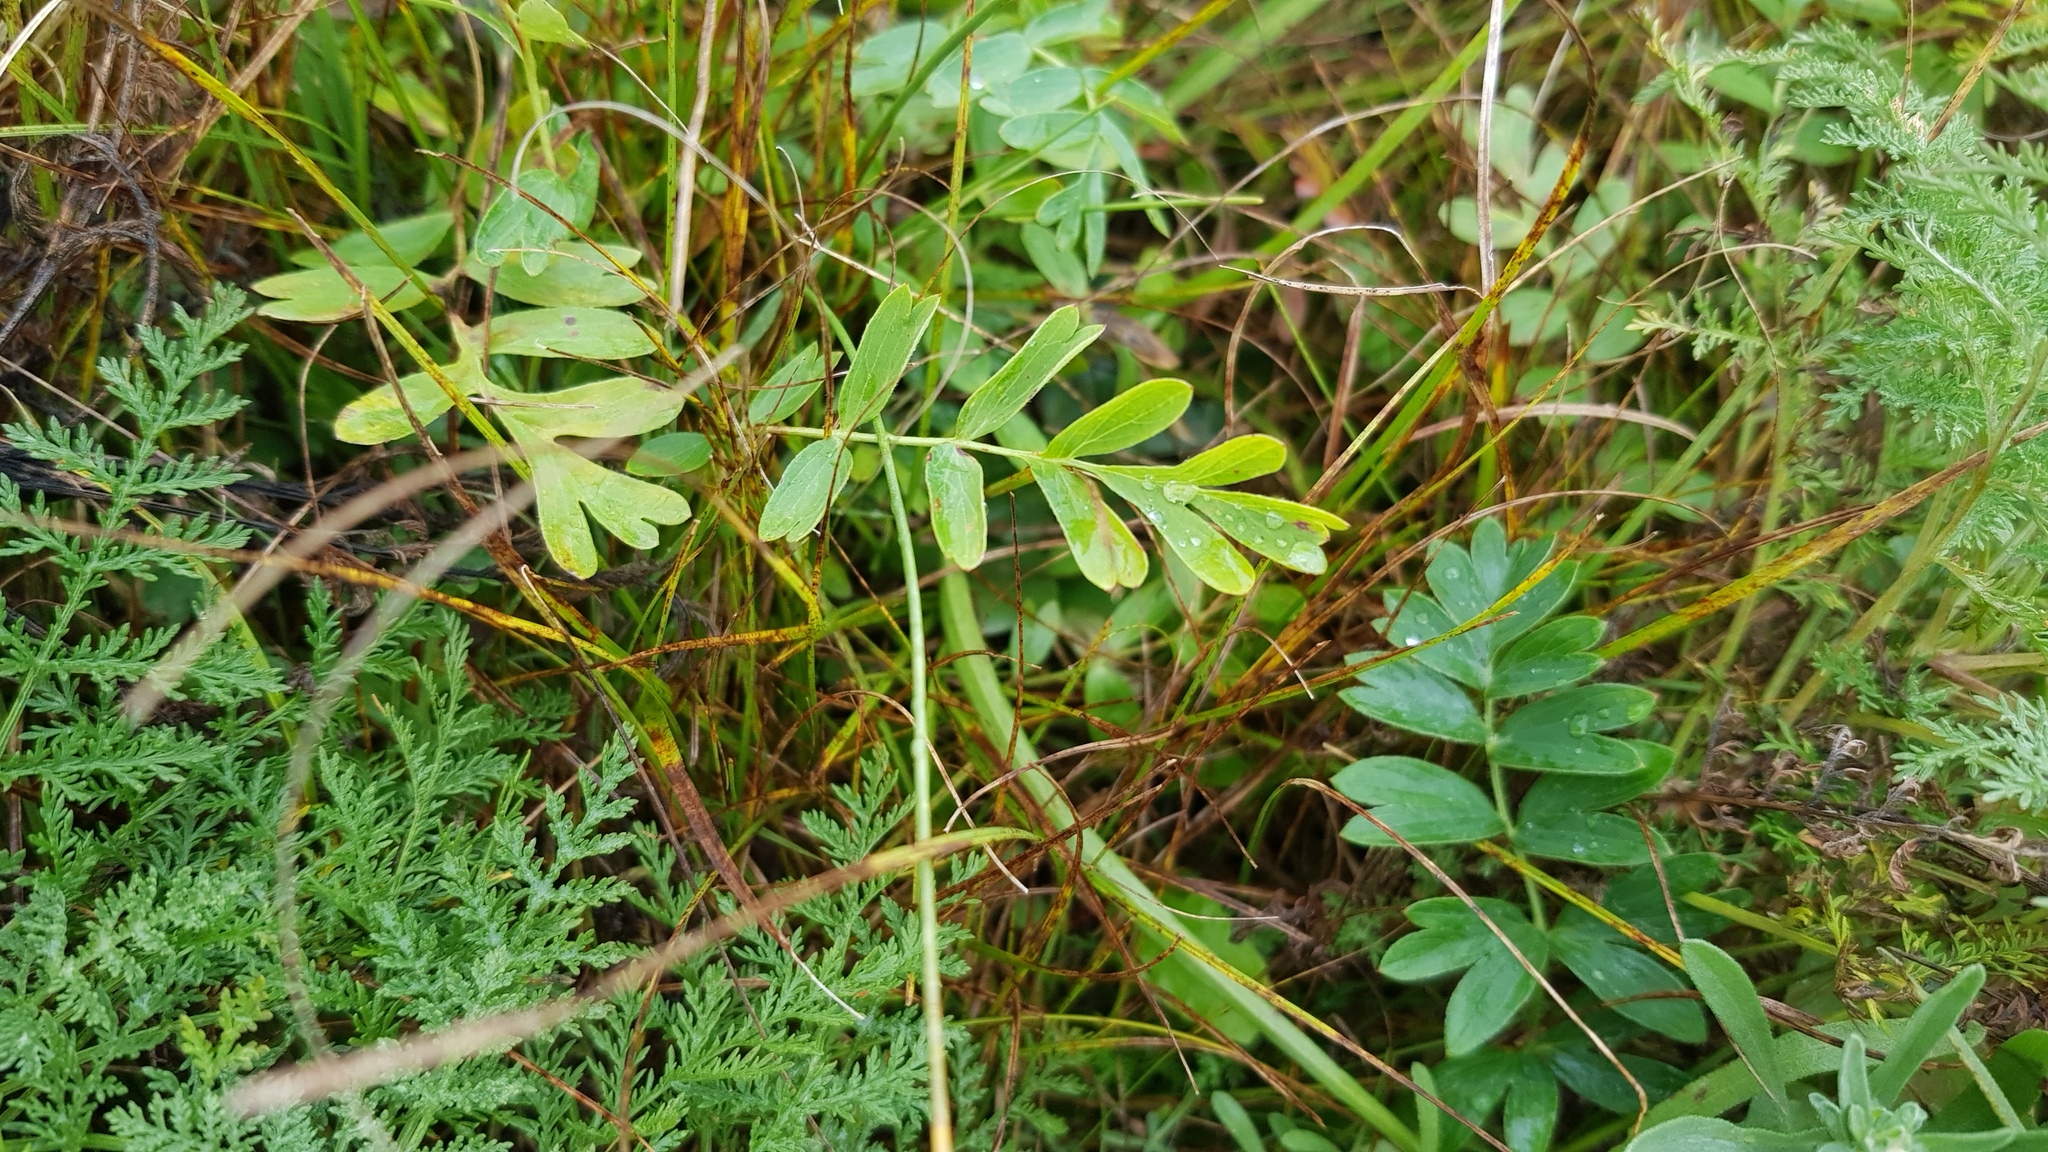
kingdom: Plantae
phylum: Tracheophyta
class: Magnoliopsida
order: Rosales
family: Rosaceae
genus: Sibbaldianthe
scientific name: Sibbaldianthe bifurca
